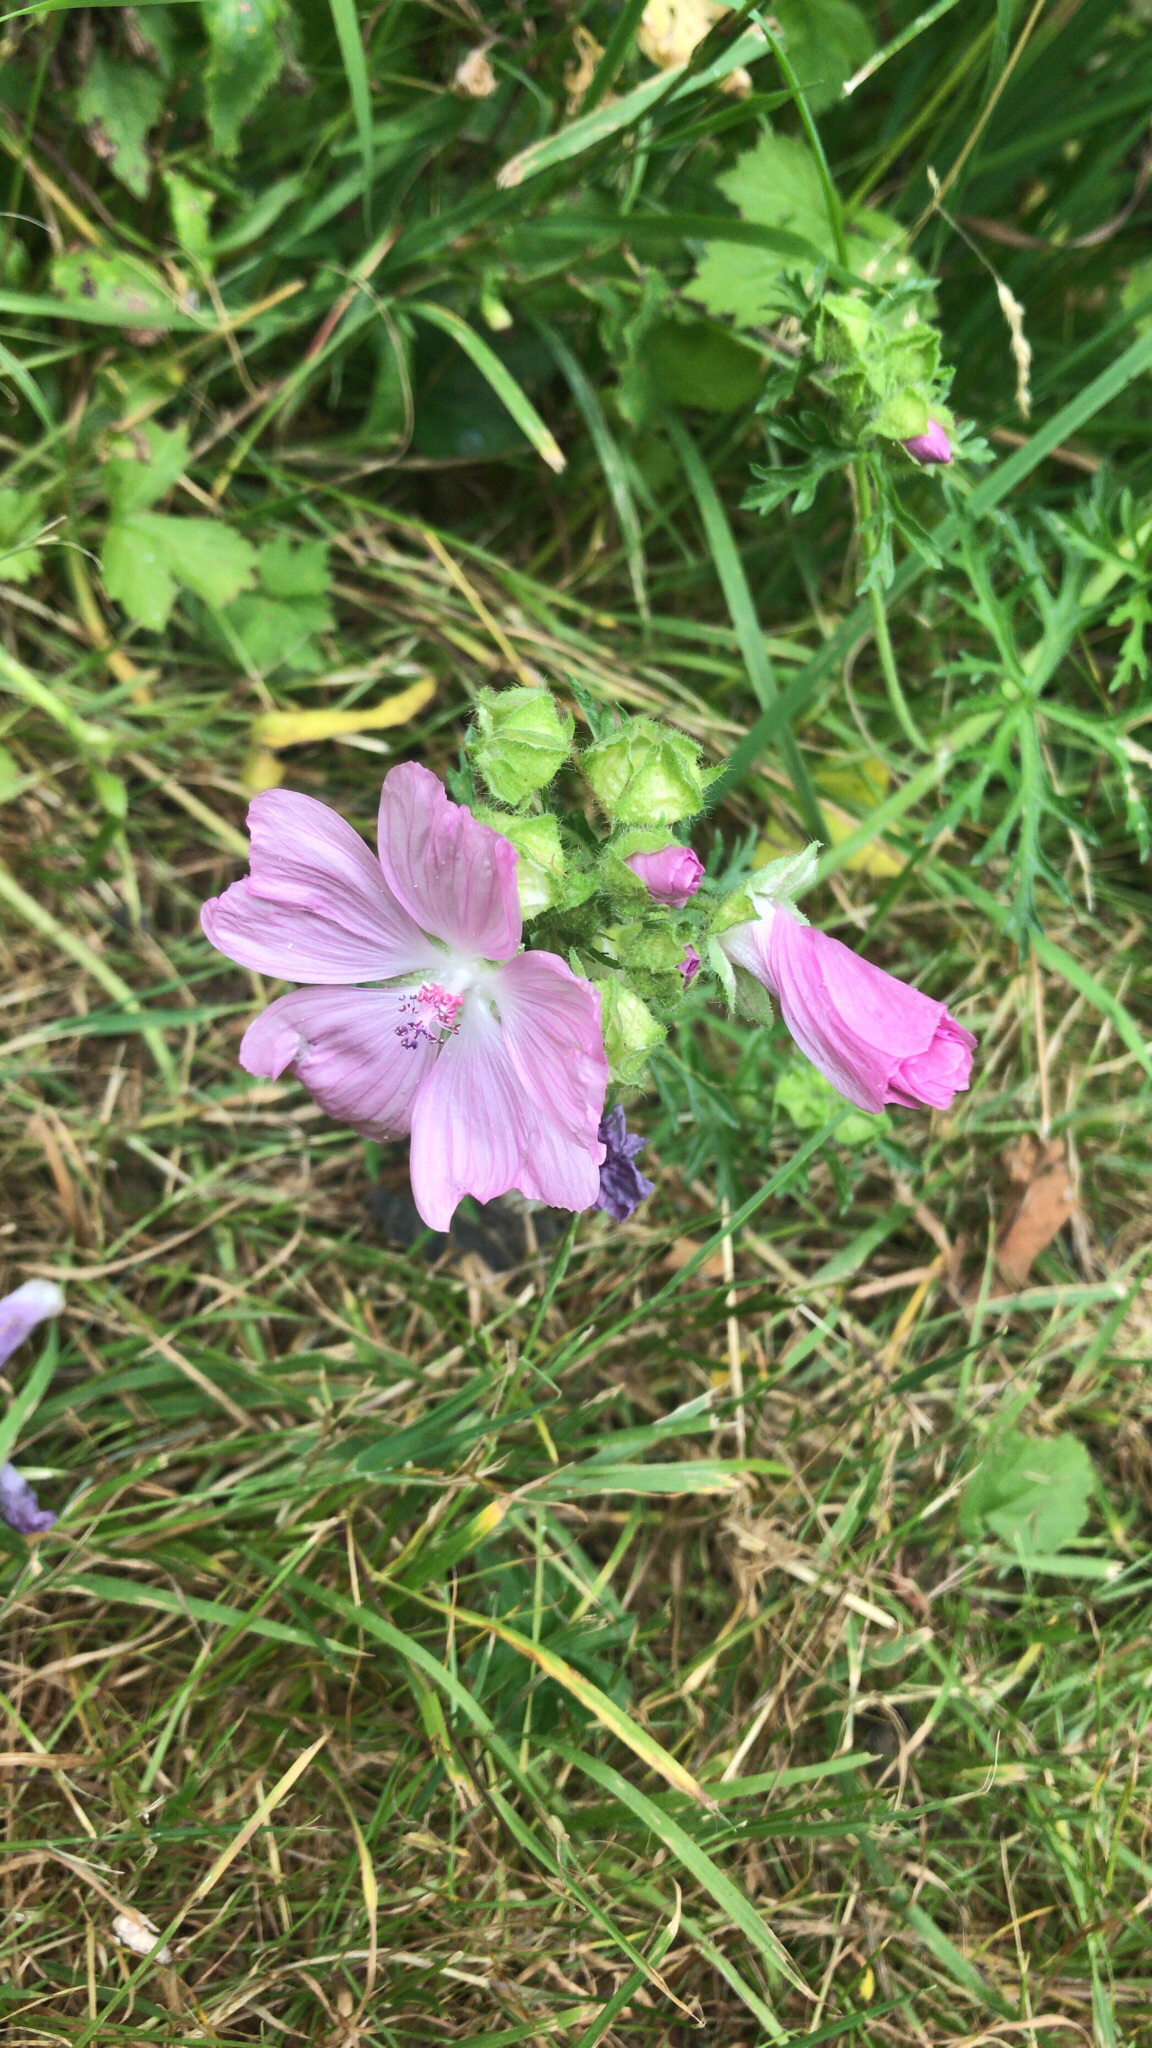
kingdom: Plantae
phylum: Tracheophyta
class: Magnoliopsida
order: Malvales
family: Malvaceae
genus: Malva
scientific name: Malva moschata
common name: Musk mallow
